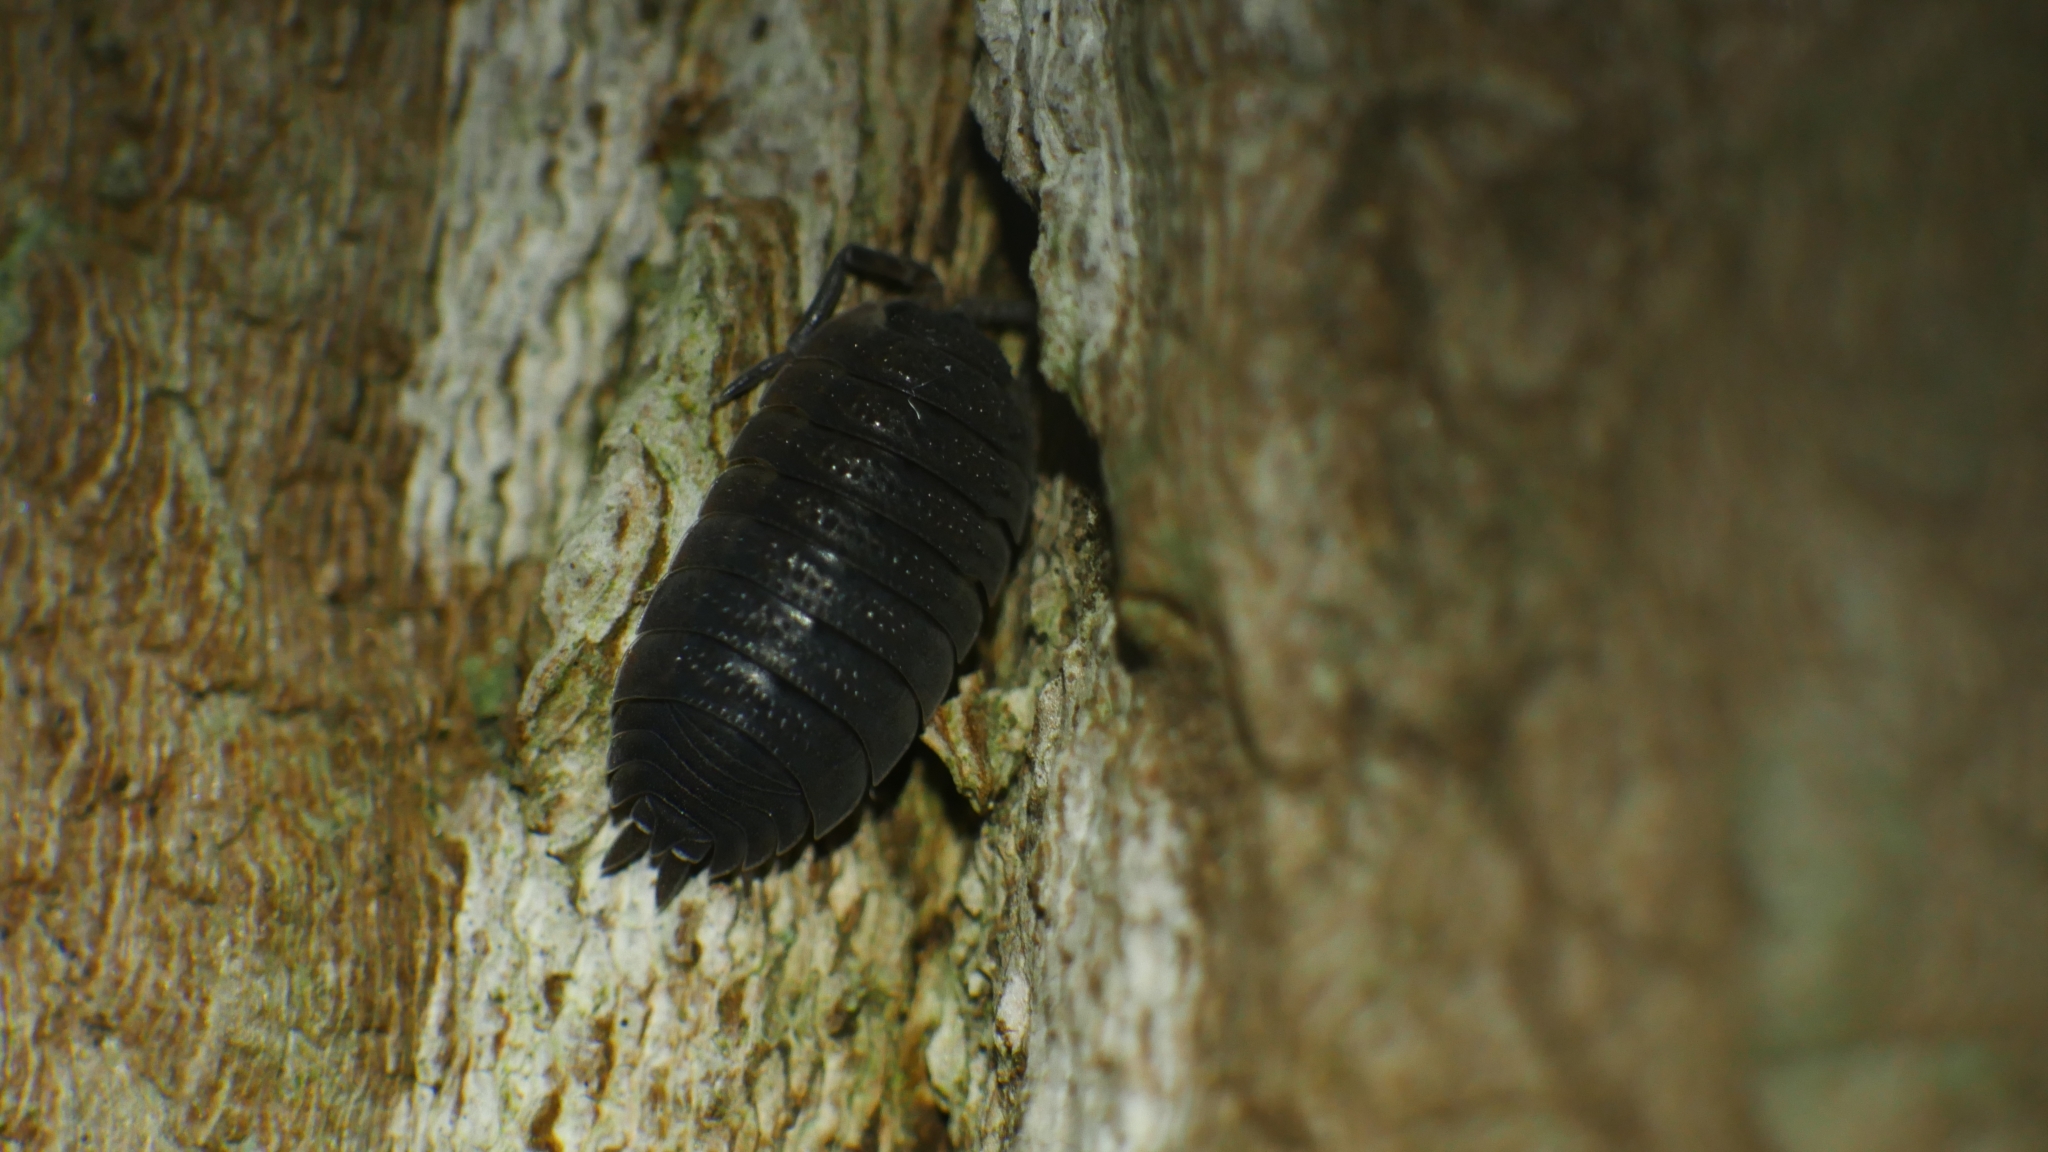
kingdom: Animalia
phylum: Arthropoda
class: Malacostraca
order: Isopoda
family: Porcellionidae
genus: Porcellio
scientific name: Porcellio scaber
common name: Common rough woodlouse
